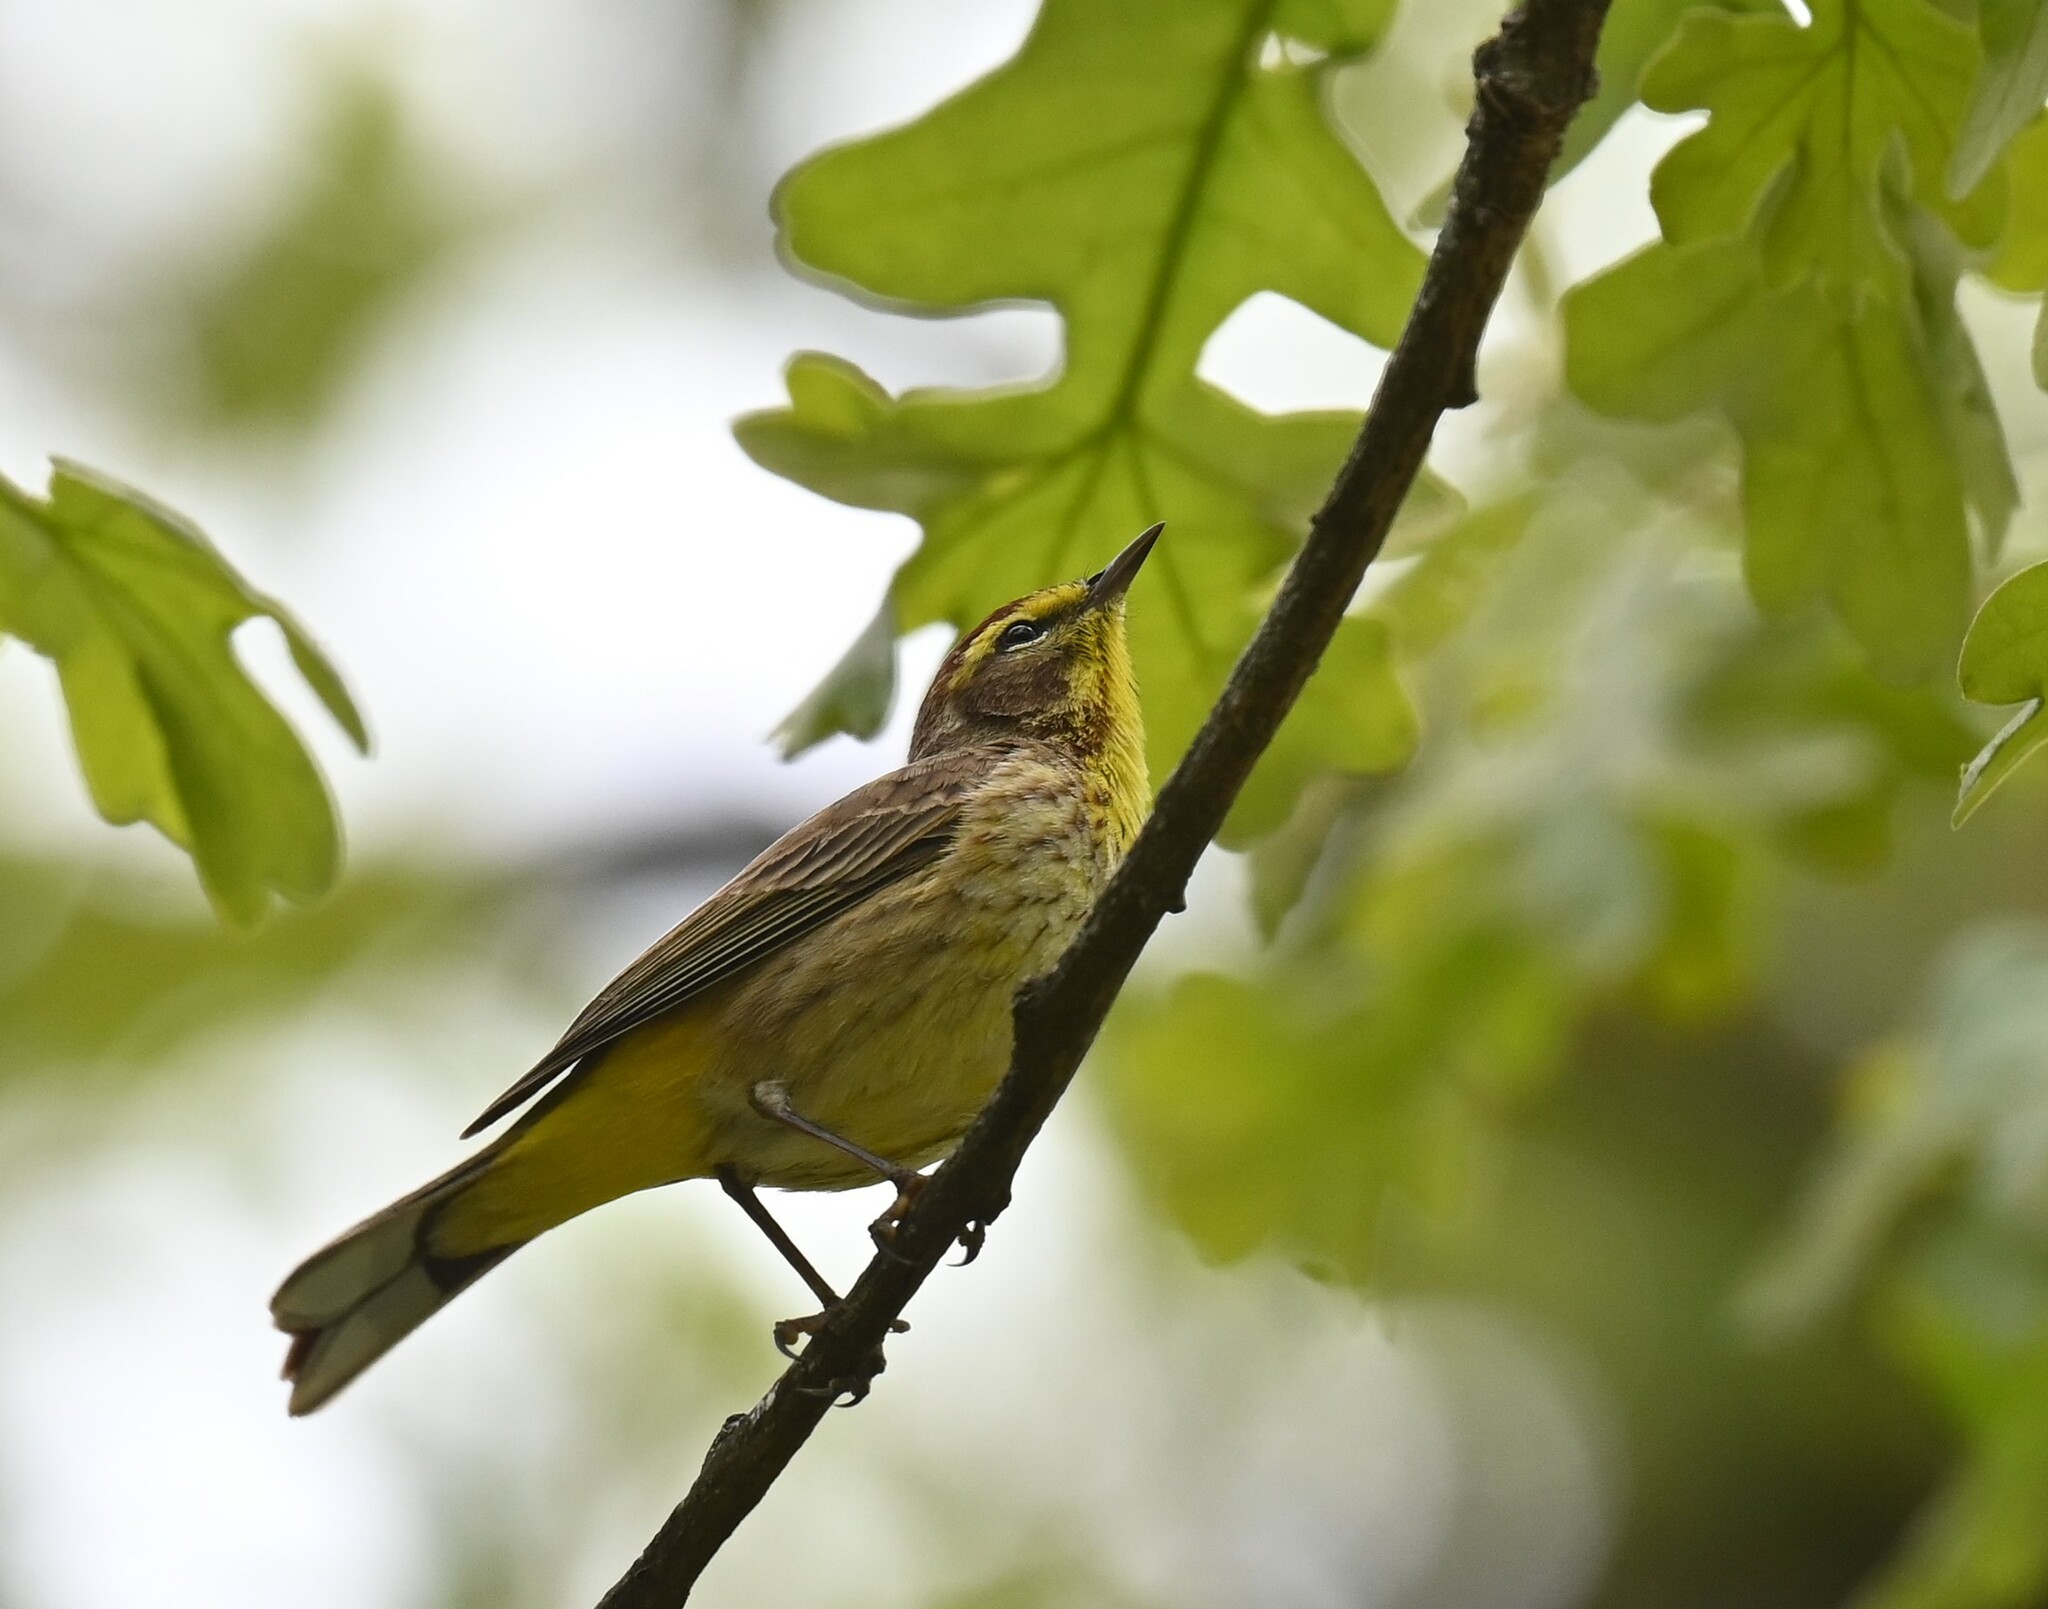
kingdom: Animalia
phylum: Chordata
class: Aves
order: Passeriformes
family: Parulidae
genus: Setophaga
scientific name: Setophaga palmarum
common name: Palm warbler
